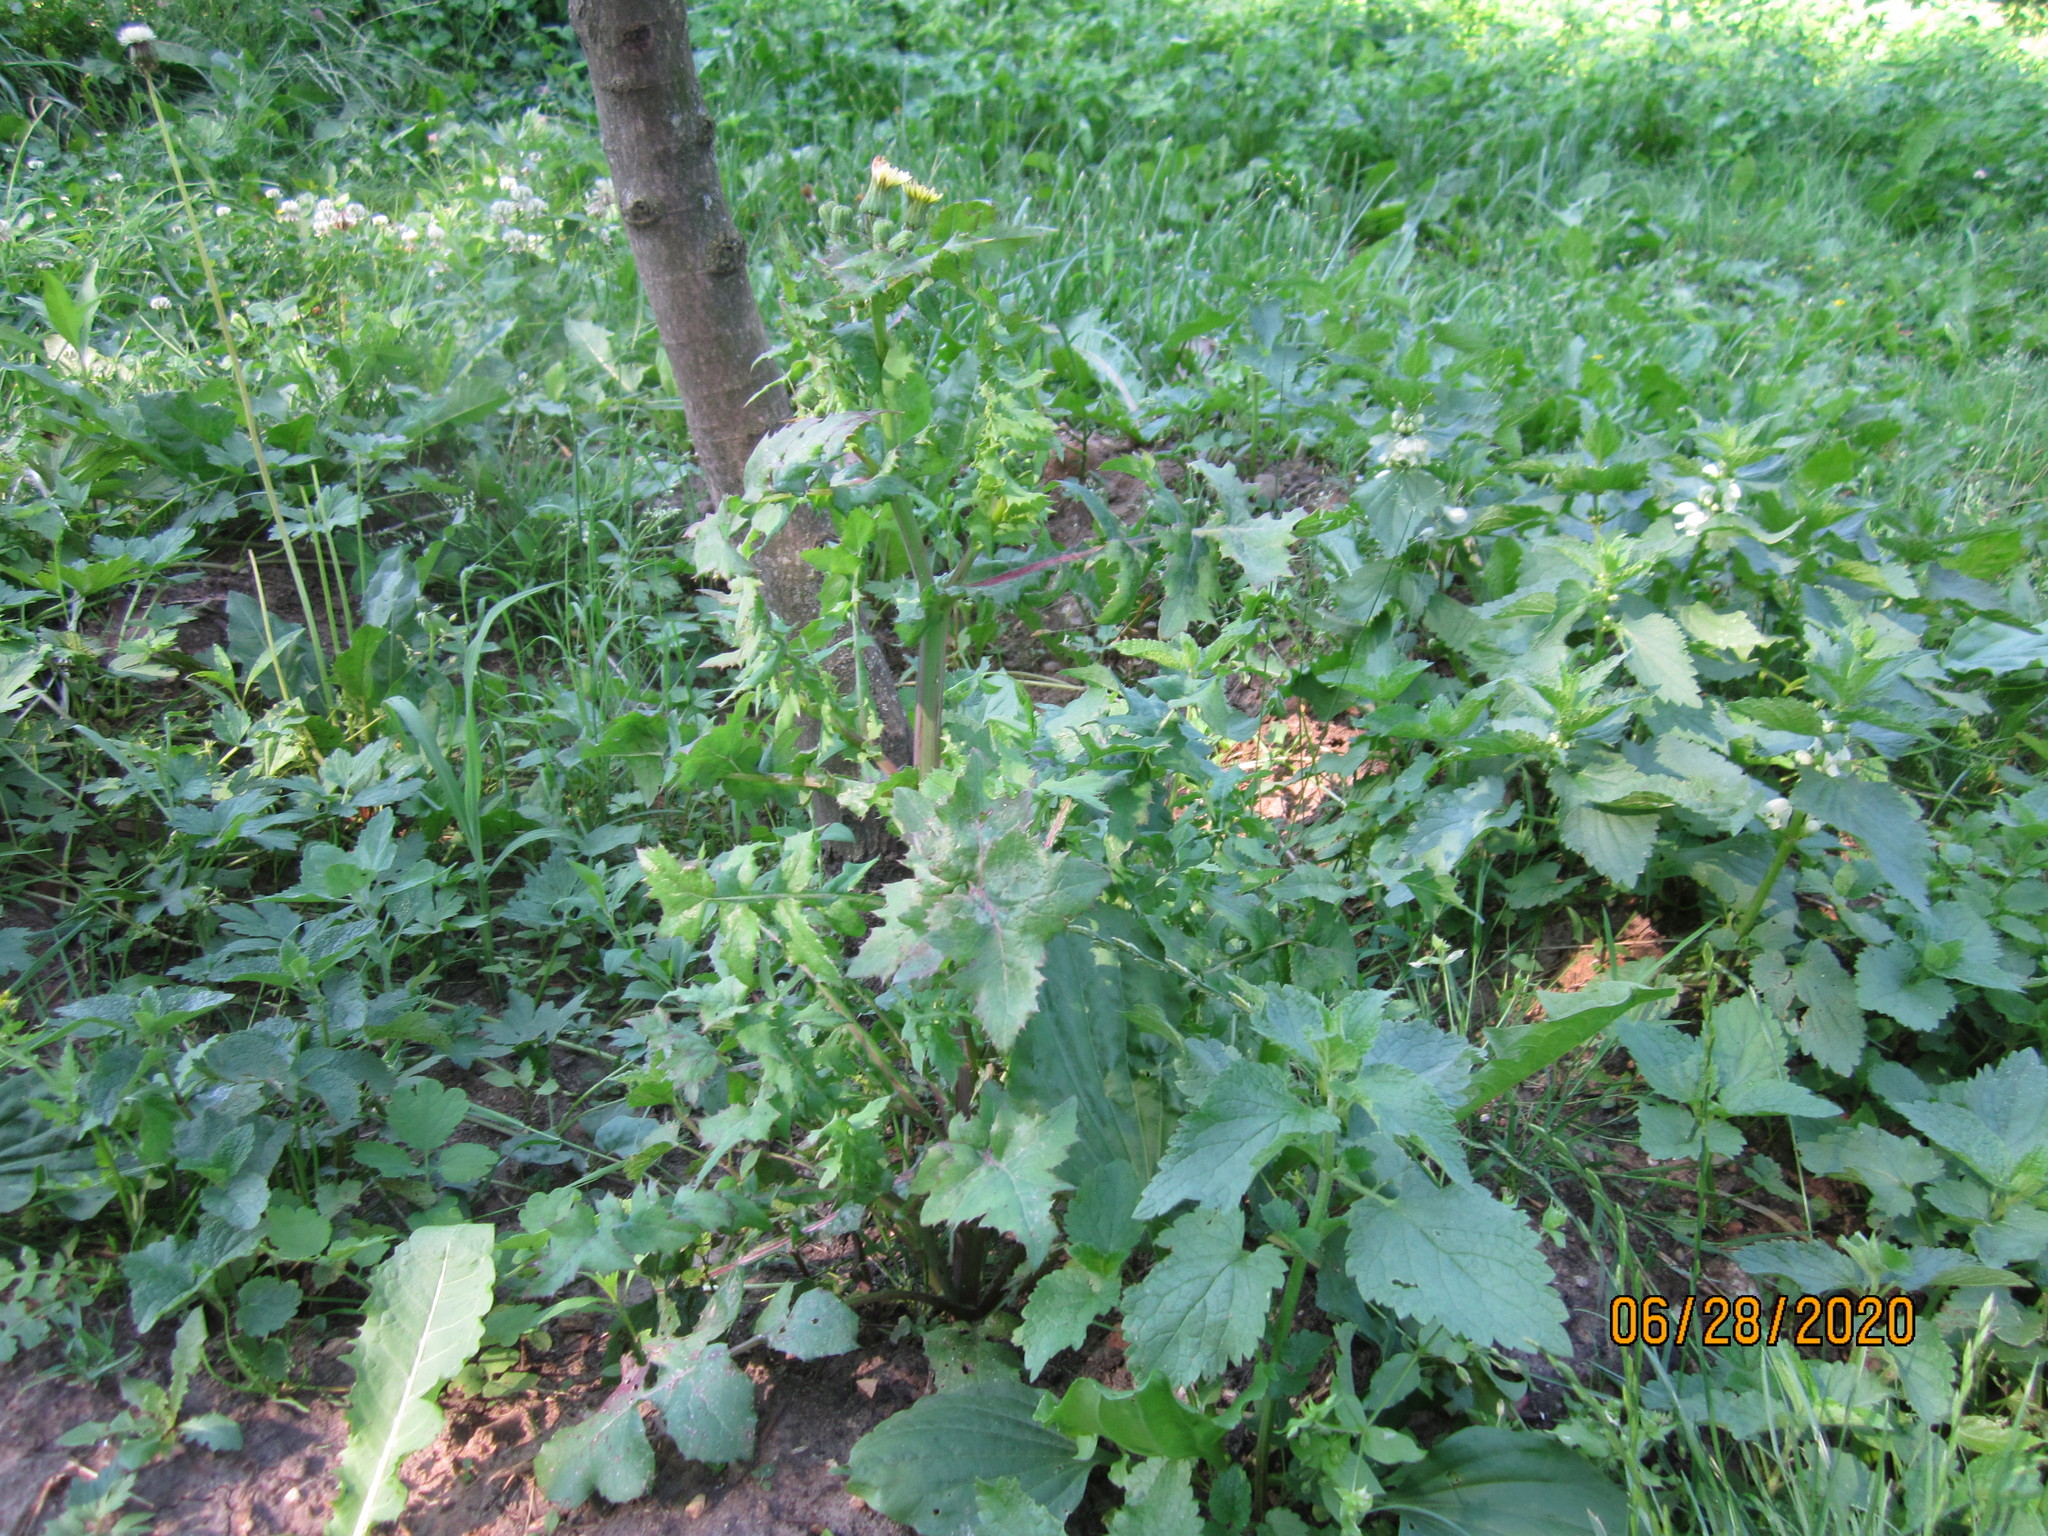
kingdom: Plantae
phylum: Tracheophyta
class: Magnoliopsida
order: Asterales
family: Asteraceae
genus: Sonchus
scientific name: Sonchus asper
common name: Prickly sow-thistle
